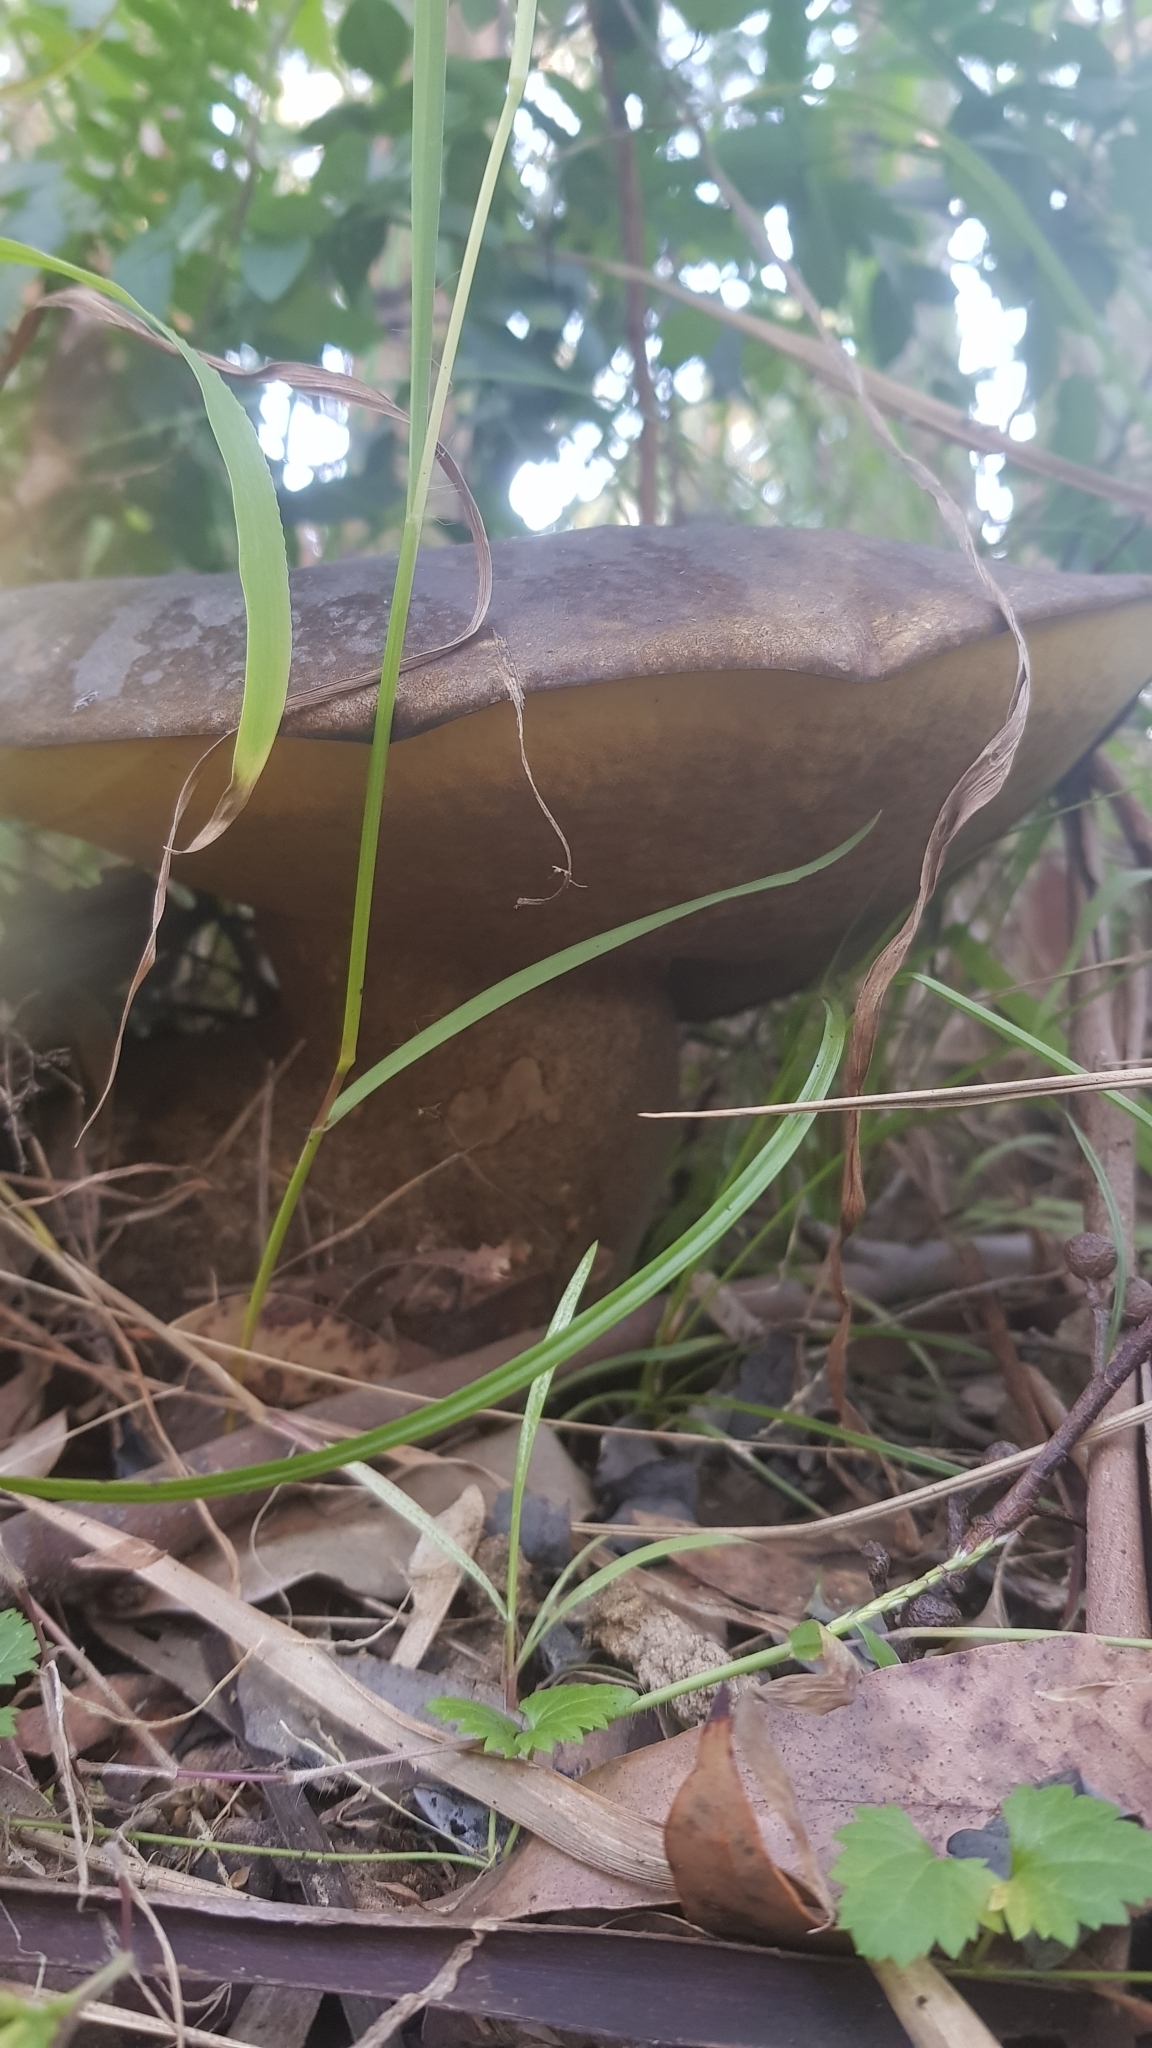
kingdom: Fungi
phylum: Basidiomycota
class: Agaricomycetes
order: Boletales
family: Boletinellaceae
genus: Phlebopus
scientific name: Phlebopus marginatus
